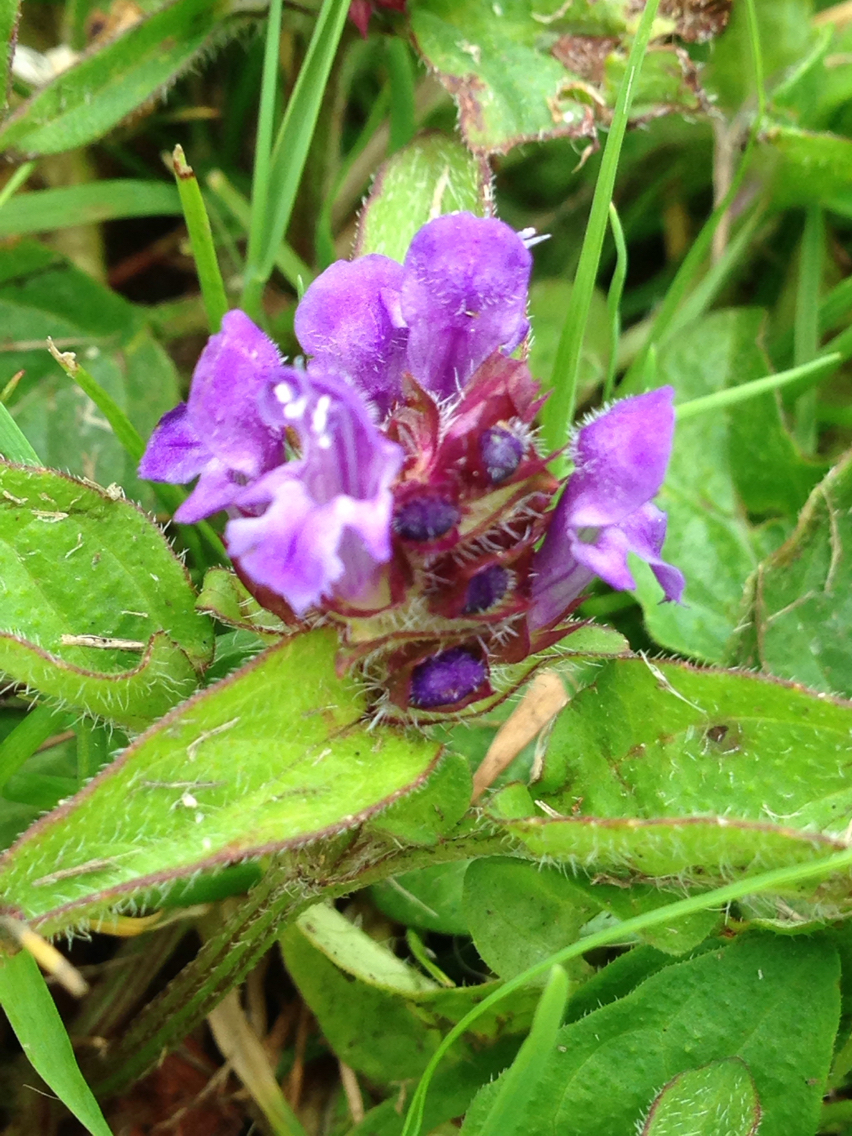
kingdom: Plantae
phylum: Tracheophyta
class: Magnoliopsida
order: Lamiales
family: Lamiaceae
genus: Prunella
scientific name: Prunella vulgaris
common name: Heal-all
